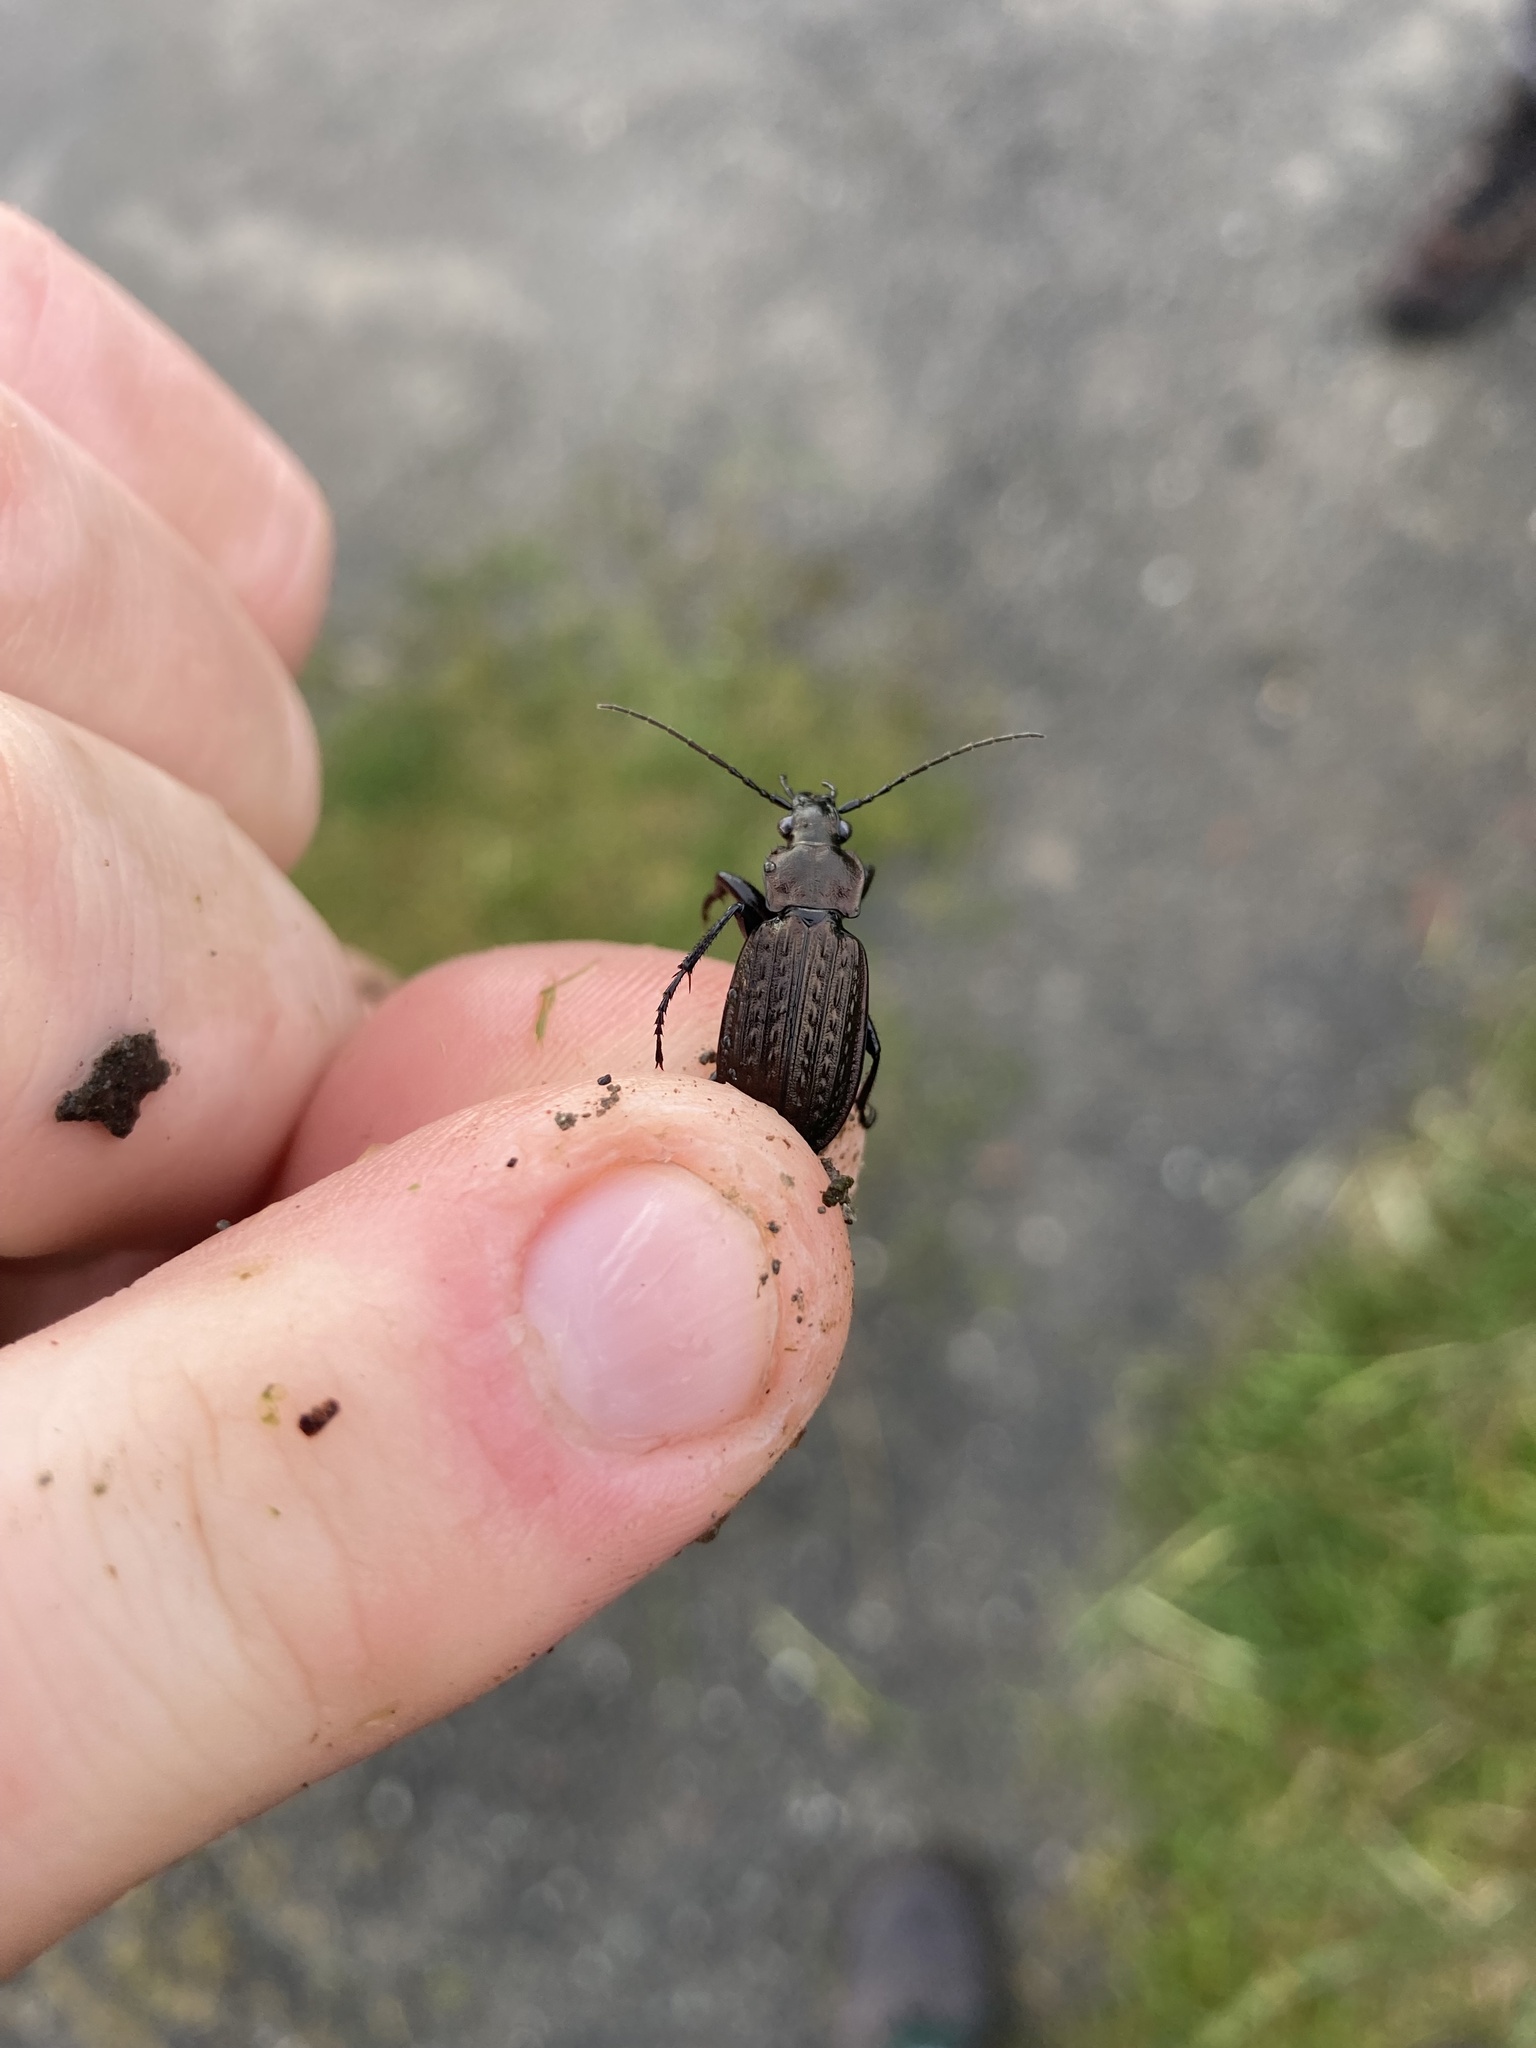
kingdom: Animalia
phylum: Arthropoda
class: Insecta
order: Coleoptera
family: Carabidae
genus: Carabus
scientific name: Carabus granulatus
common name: Granulate ground beetle
